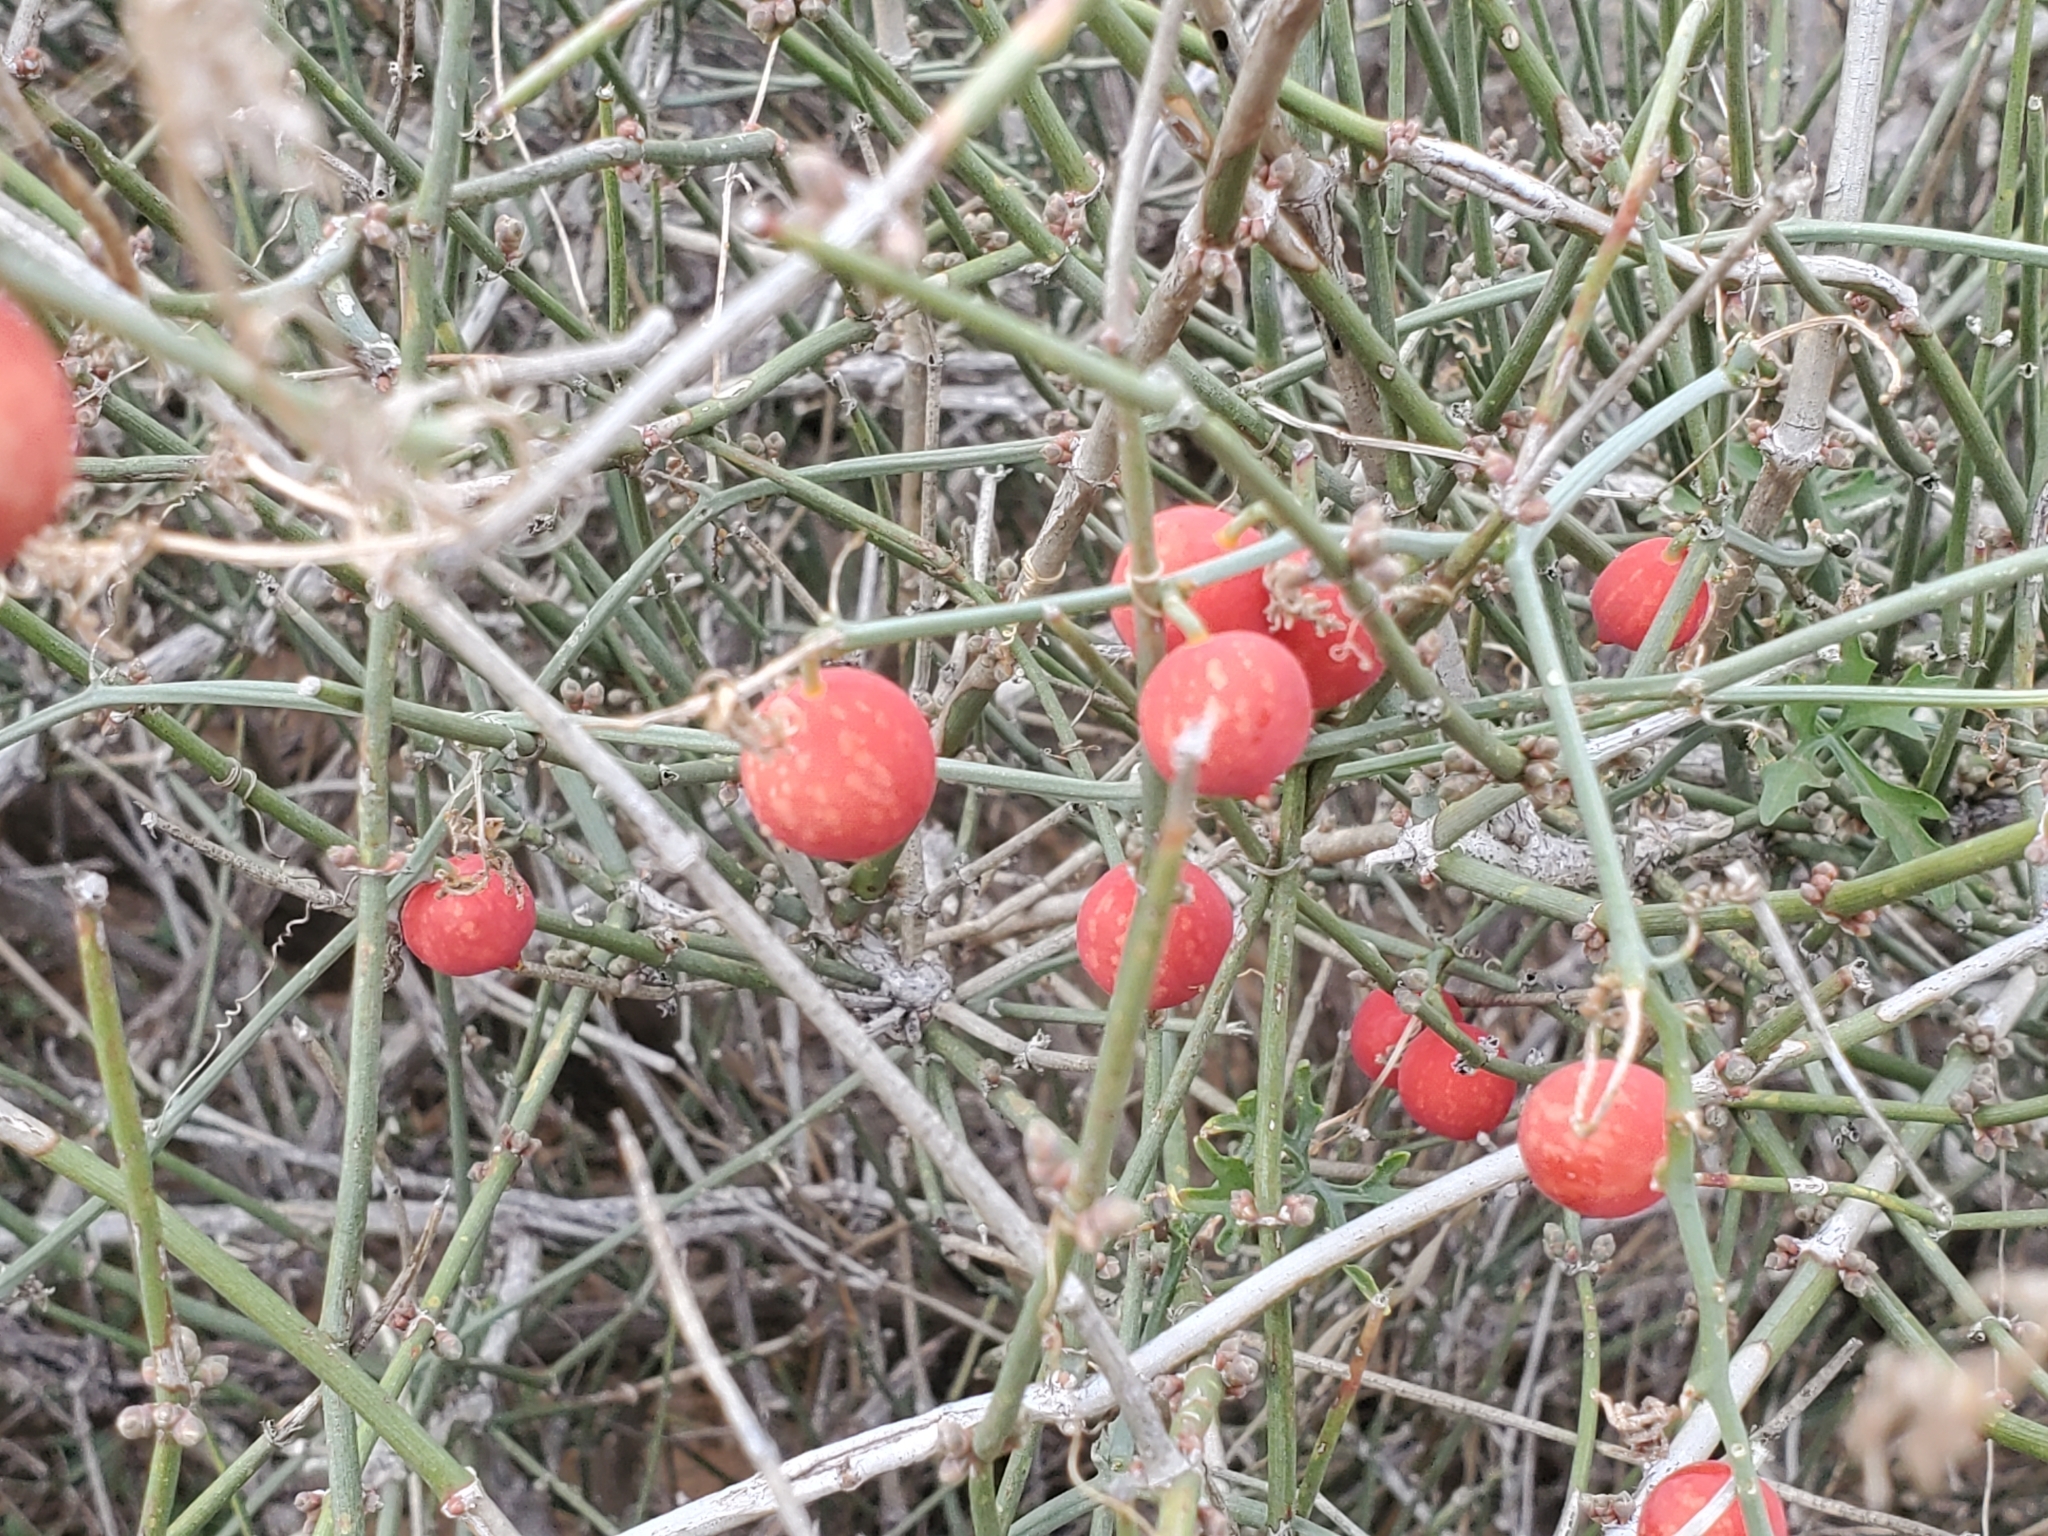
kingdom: Plantae
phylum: Tracheophyta
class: Magnoliopsida
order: Cucurbitales
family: Cucurbitaceae
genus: Ibervillea
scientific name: Ibervillea lindheimeri
